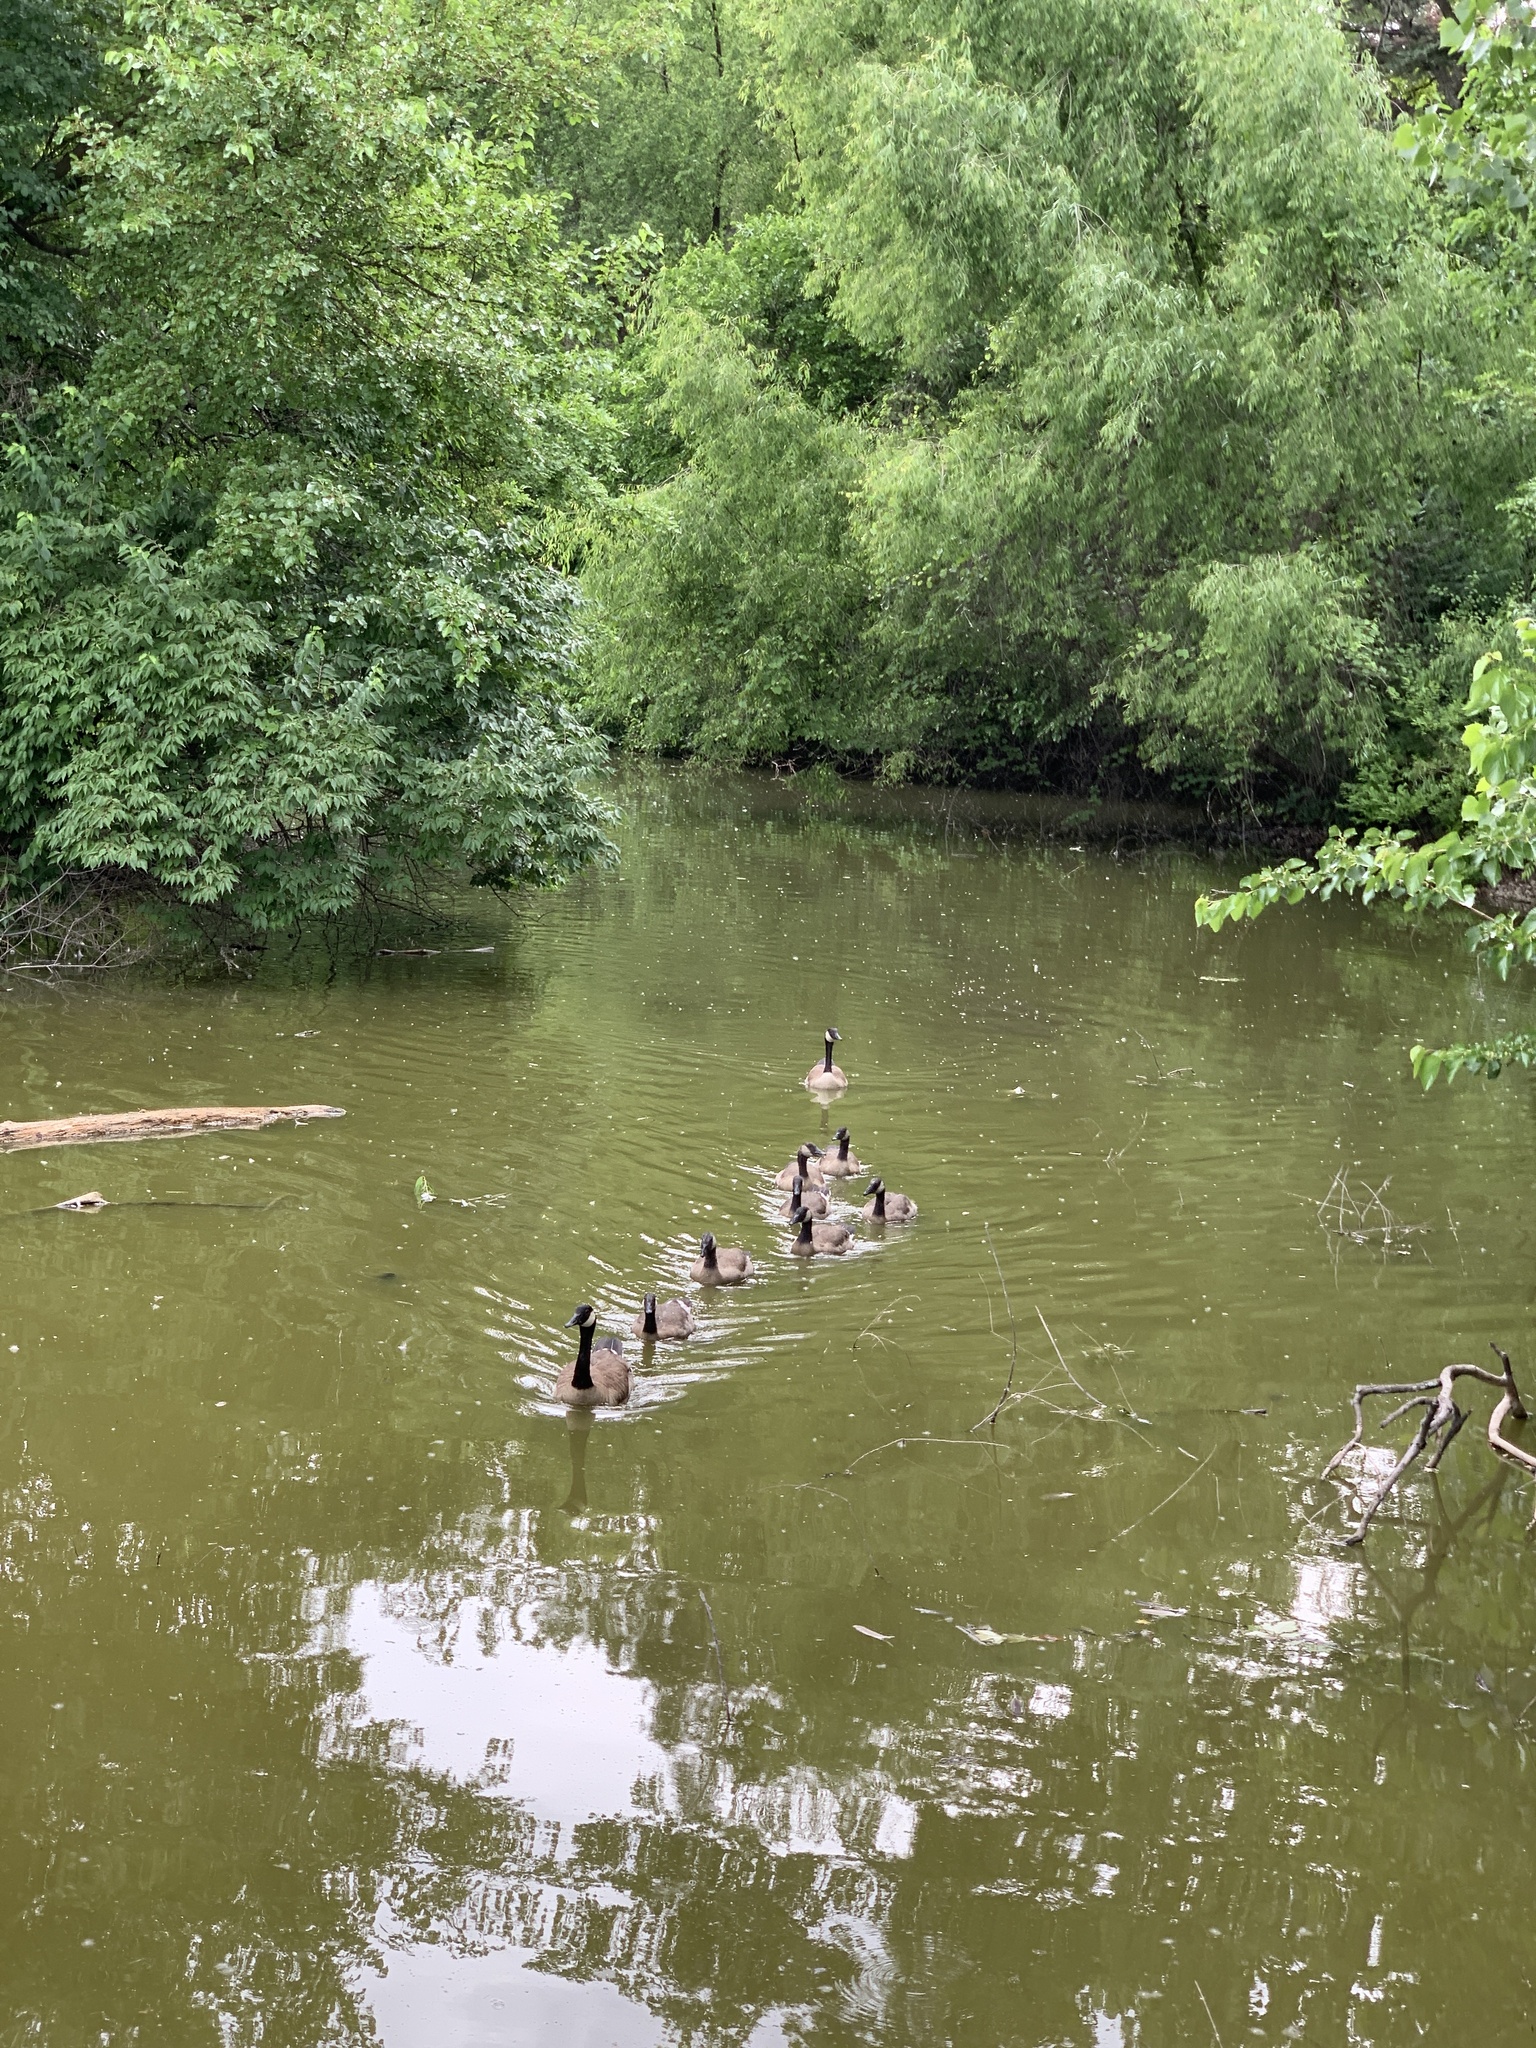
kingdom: Animalia
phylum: Chordata
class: Aves
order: Anseriformes
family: Anatidae
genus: Branta
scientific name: Branta canadensis
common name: Canada goose
